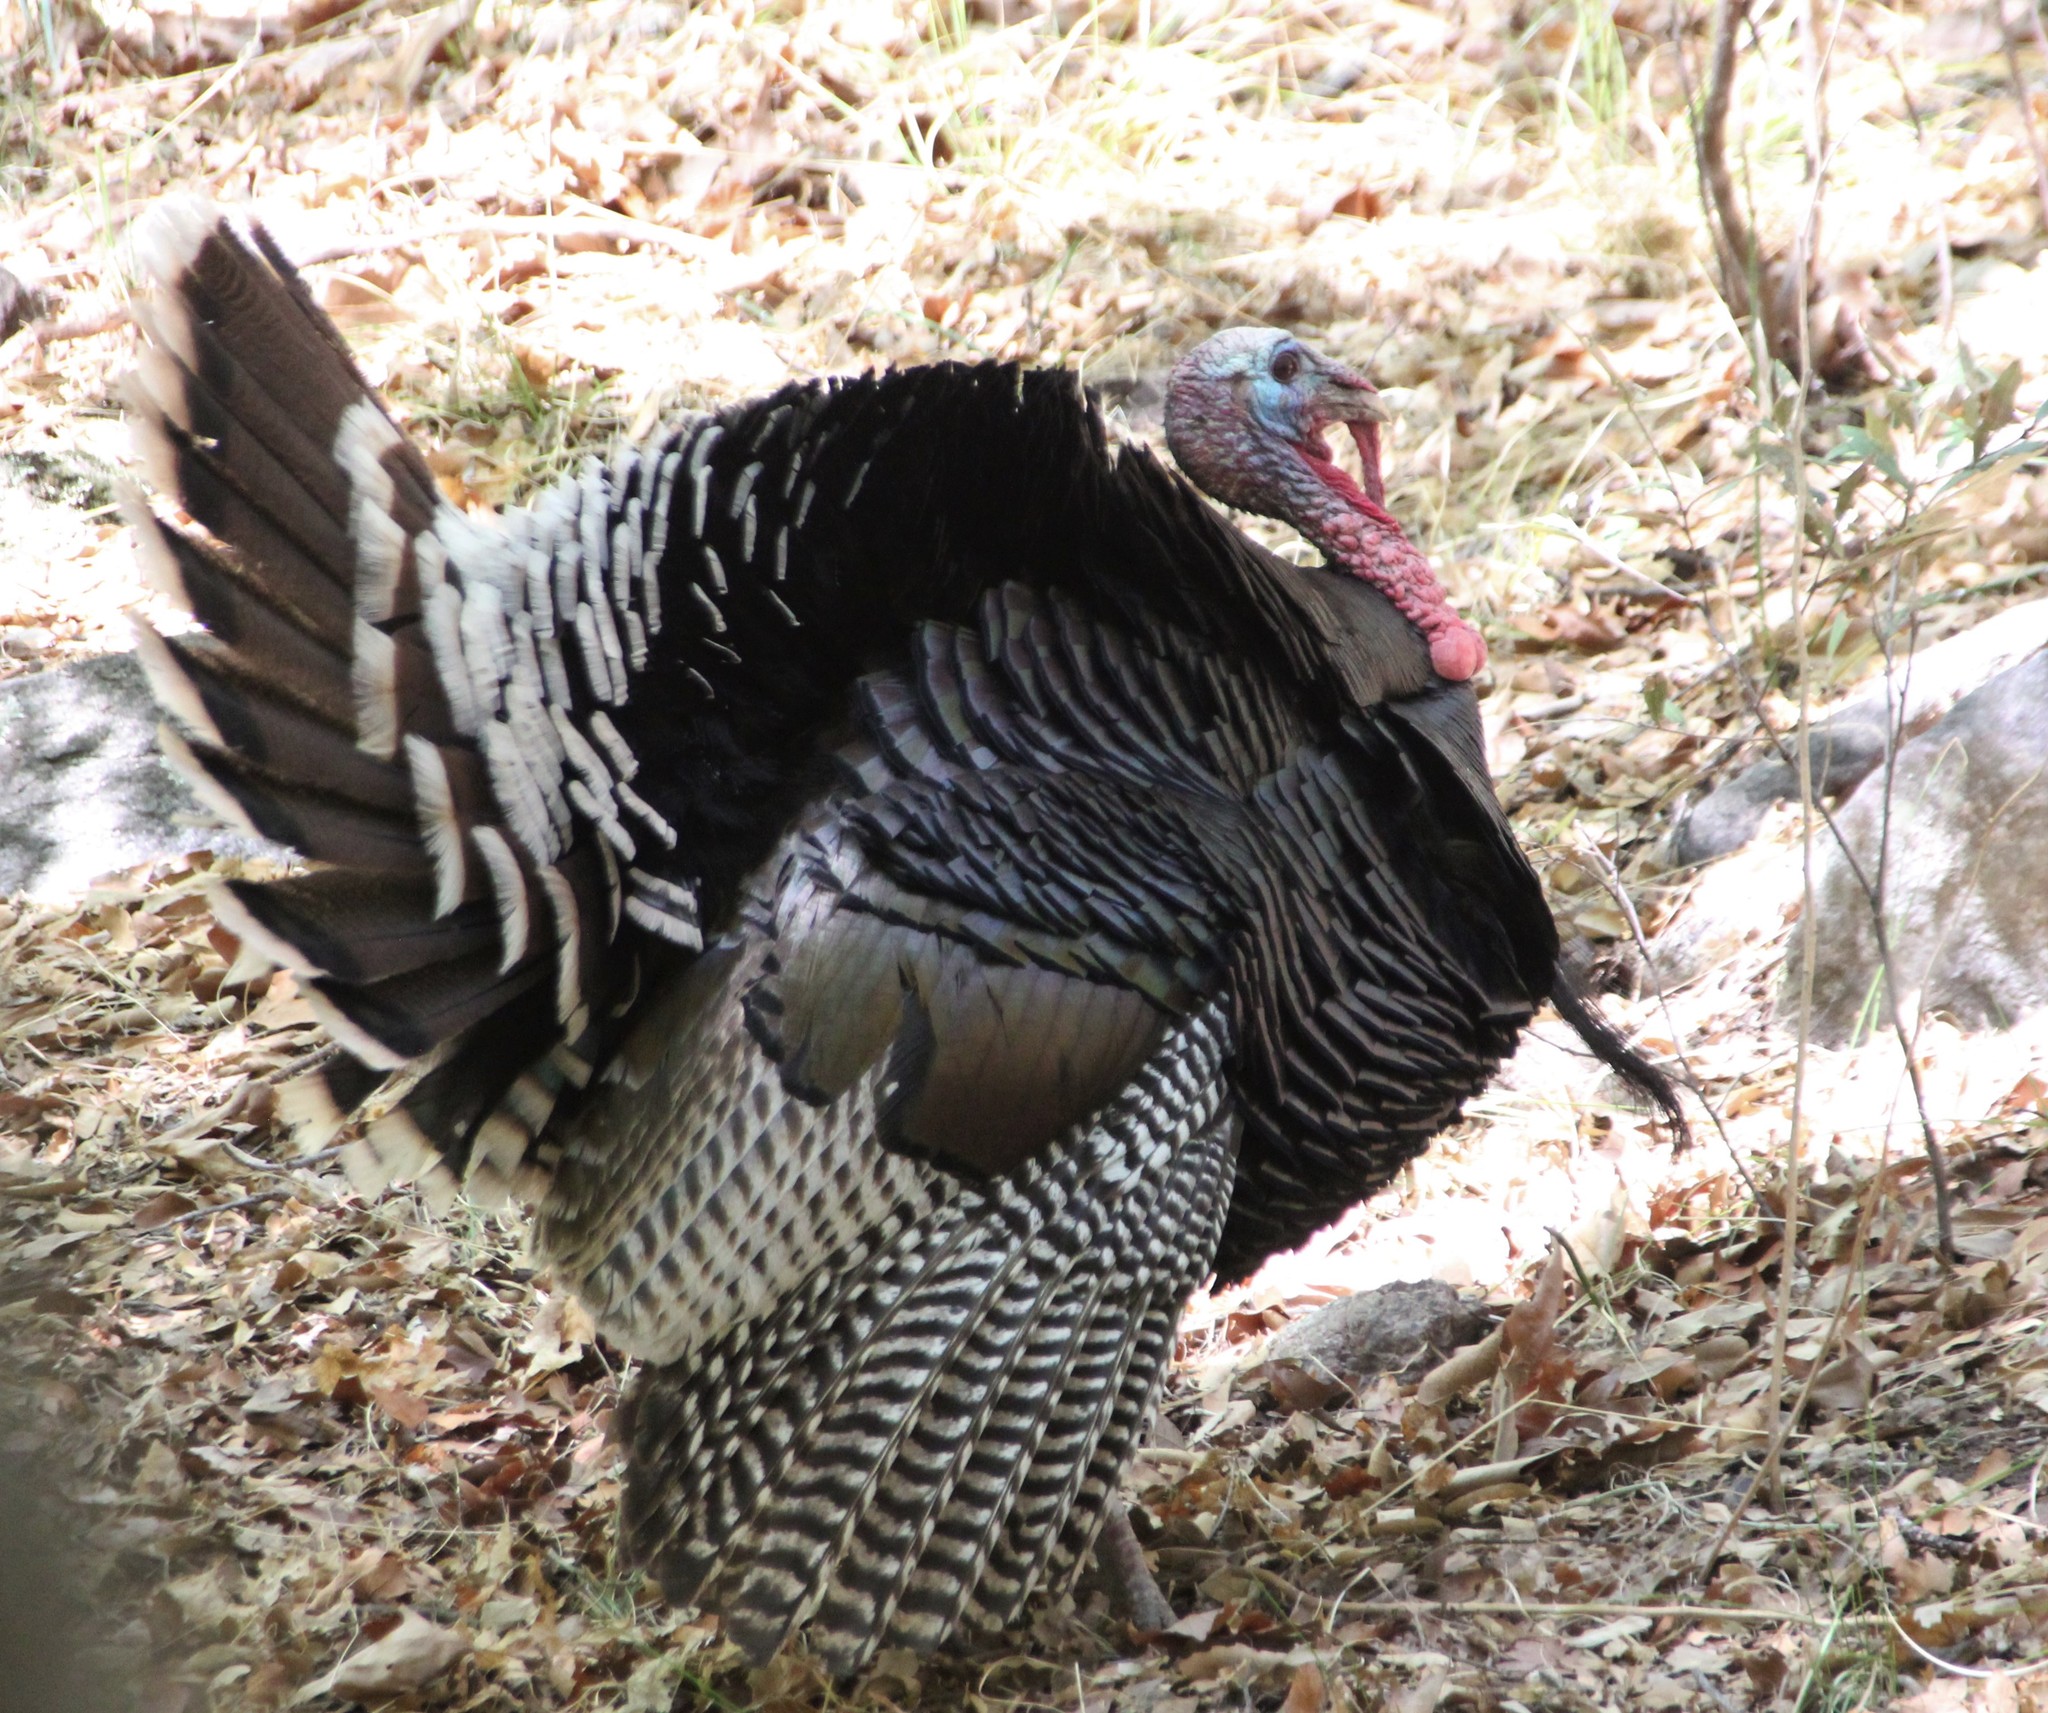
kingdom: Animalia
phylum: Chordata
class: Aves
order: Galliformes
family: Phasianidae
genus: Meleagris
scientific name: Meleagris gallopavo
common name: Wild turkey
